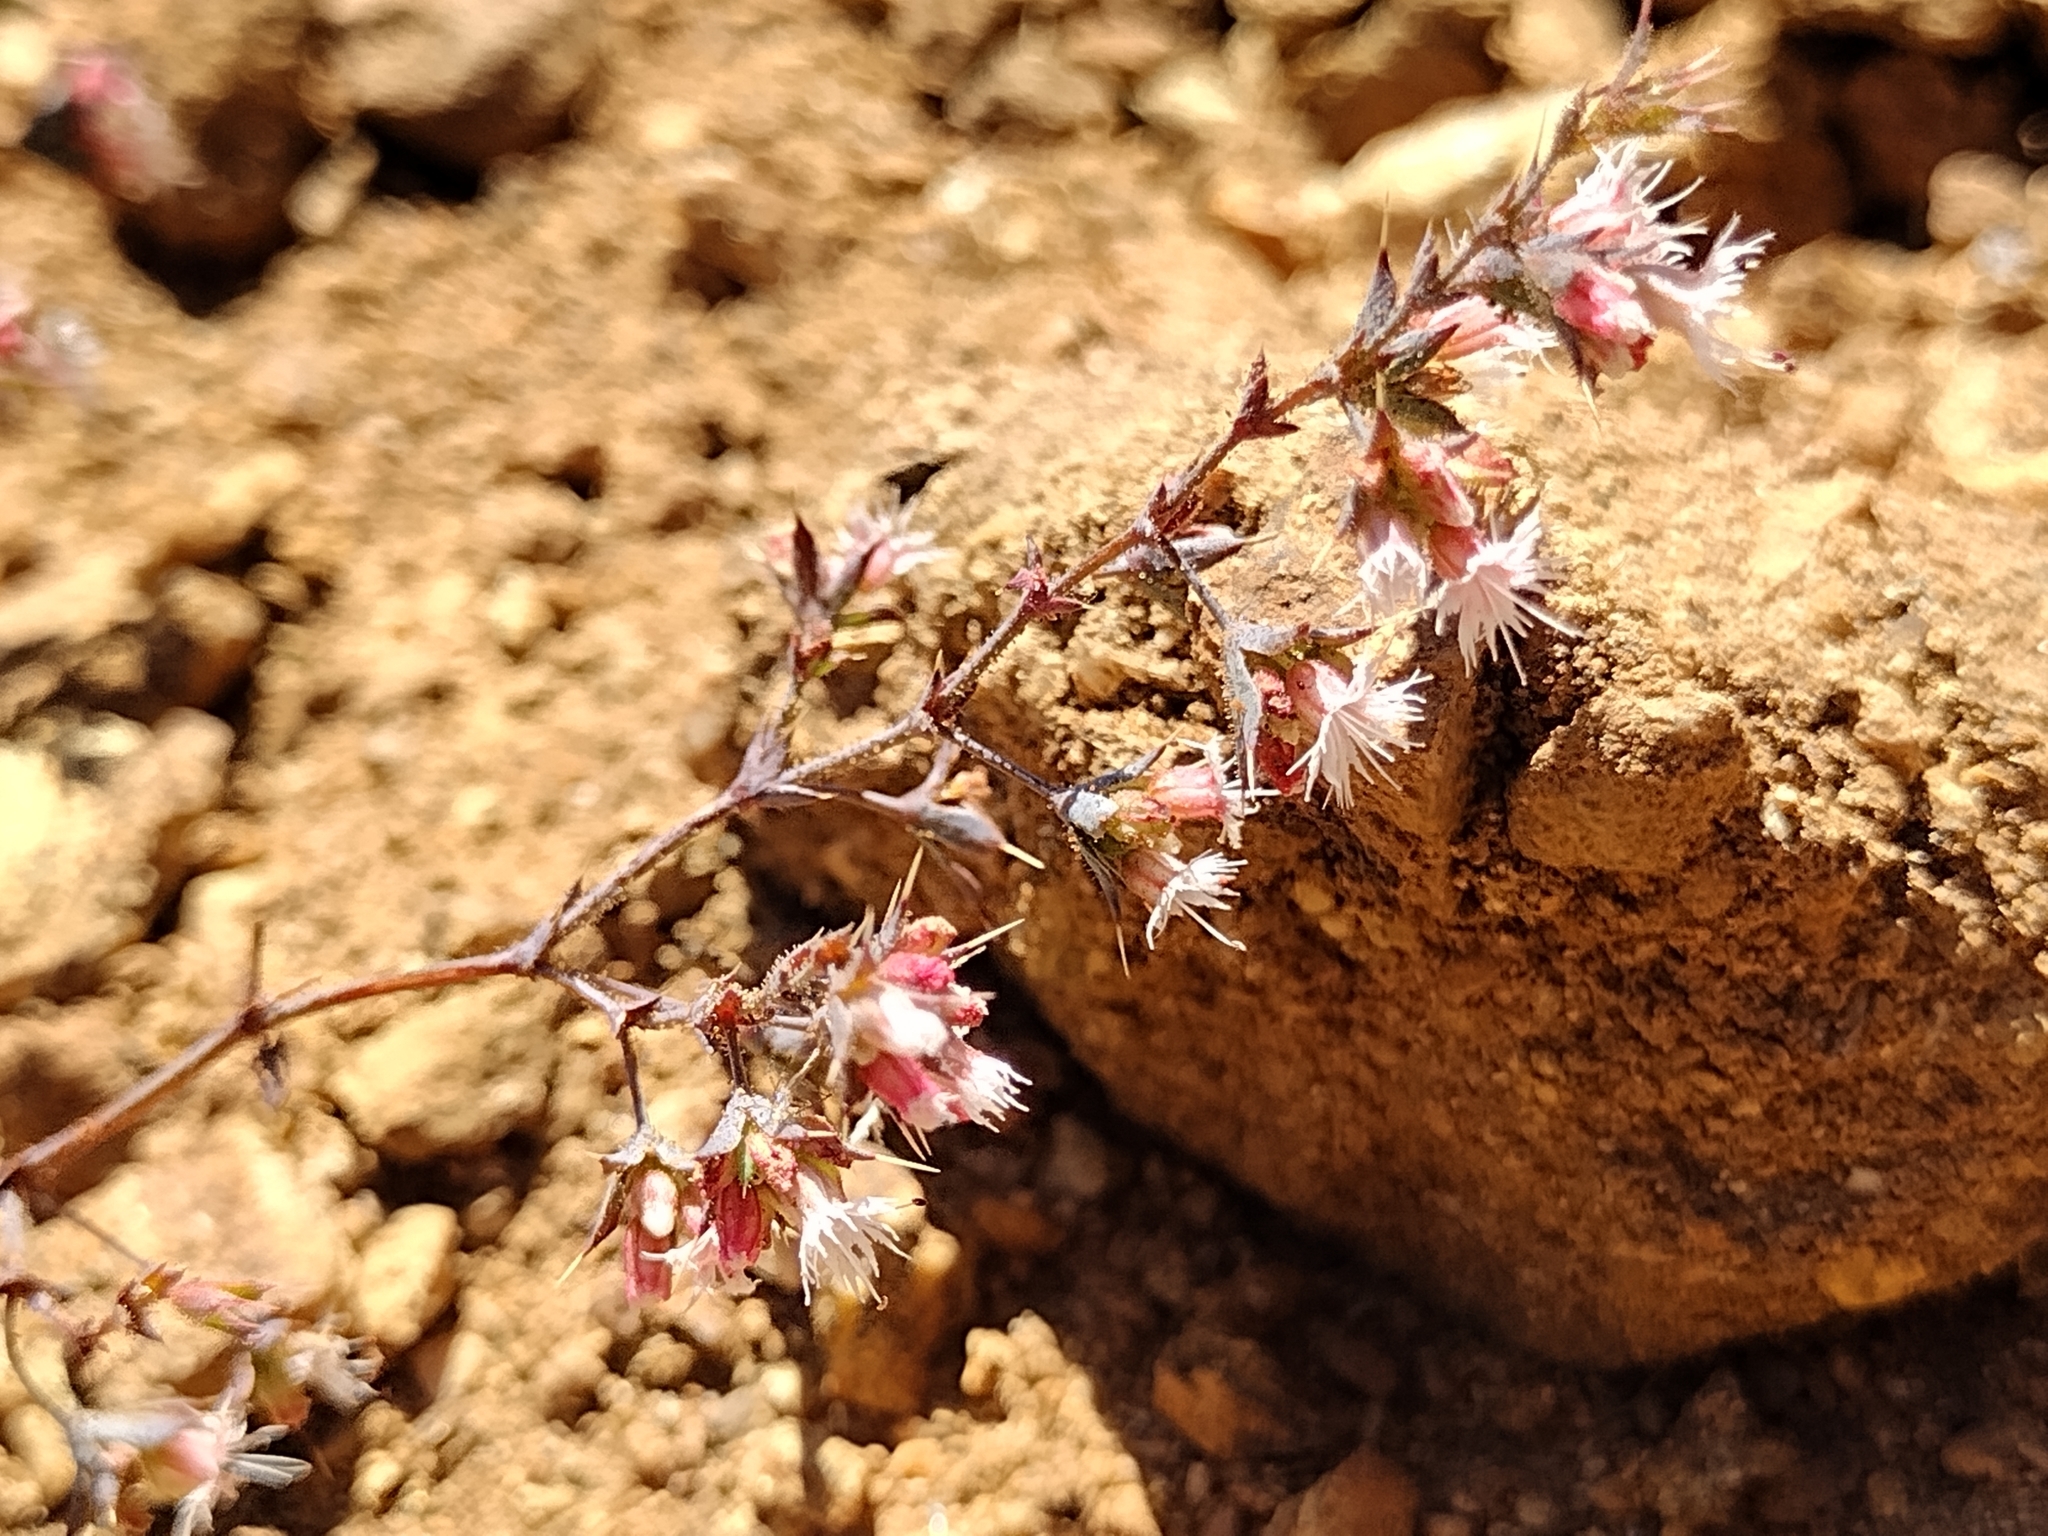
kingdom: Plantae
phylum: Tracheophyta
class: Magnoliopsida
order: Caryophyllales
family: Polygonaceae
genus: Sidotheca
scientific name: Sidotheca trilobata
